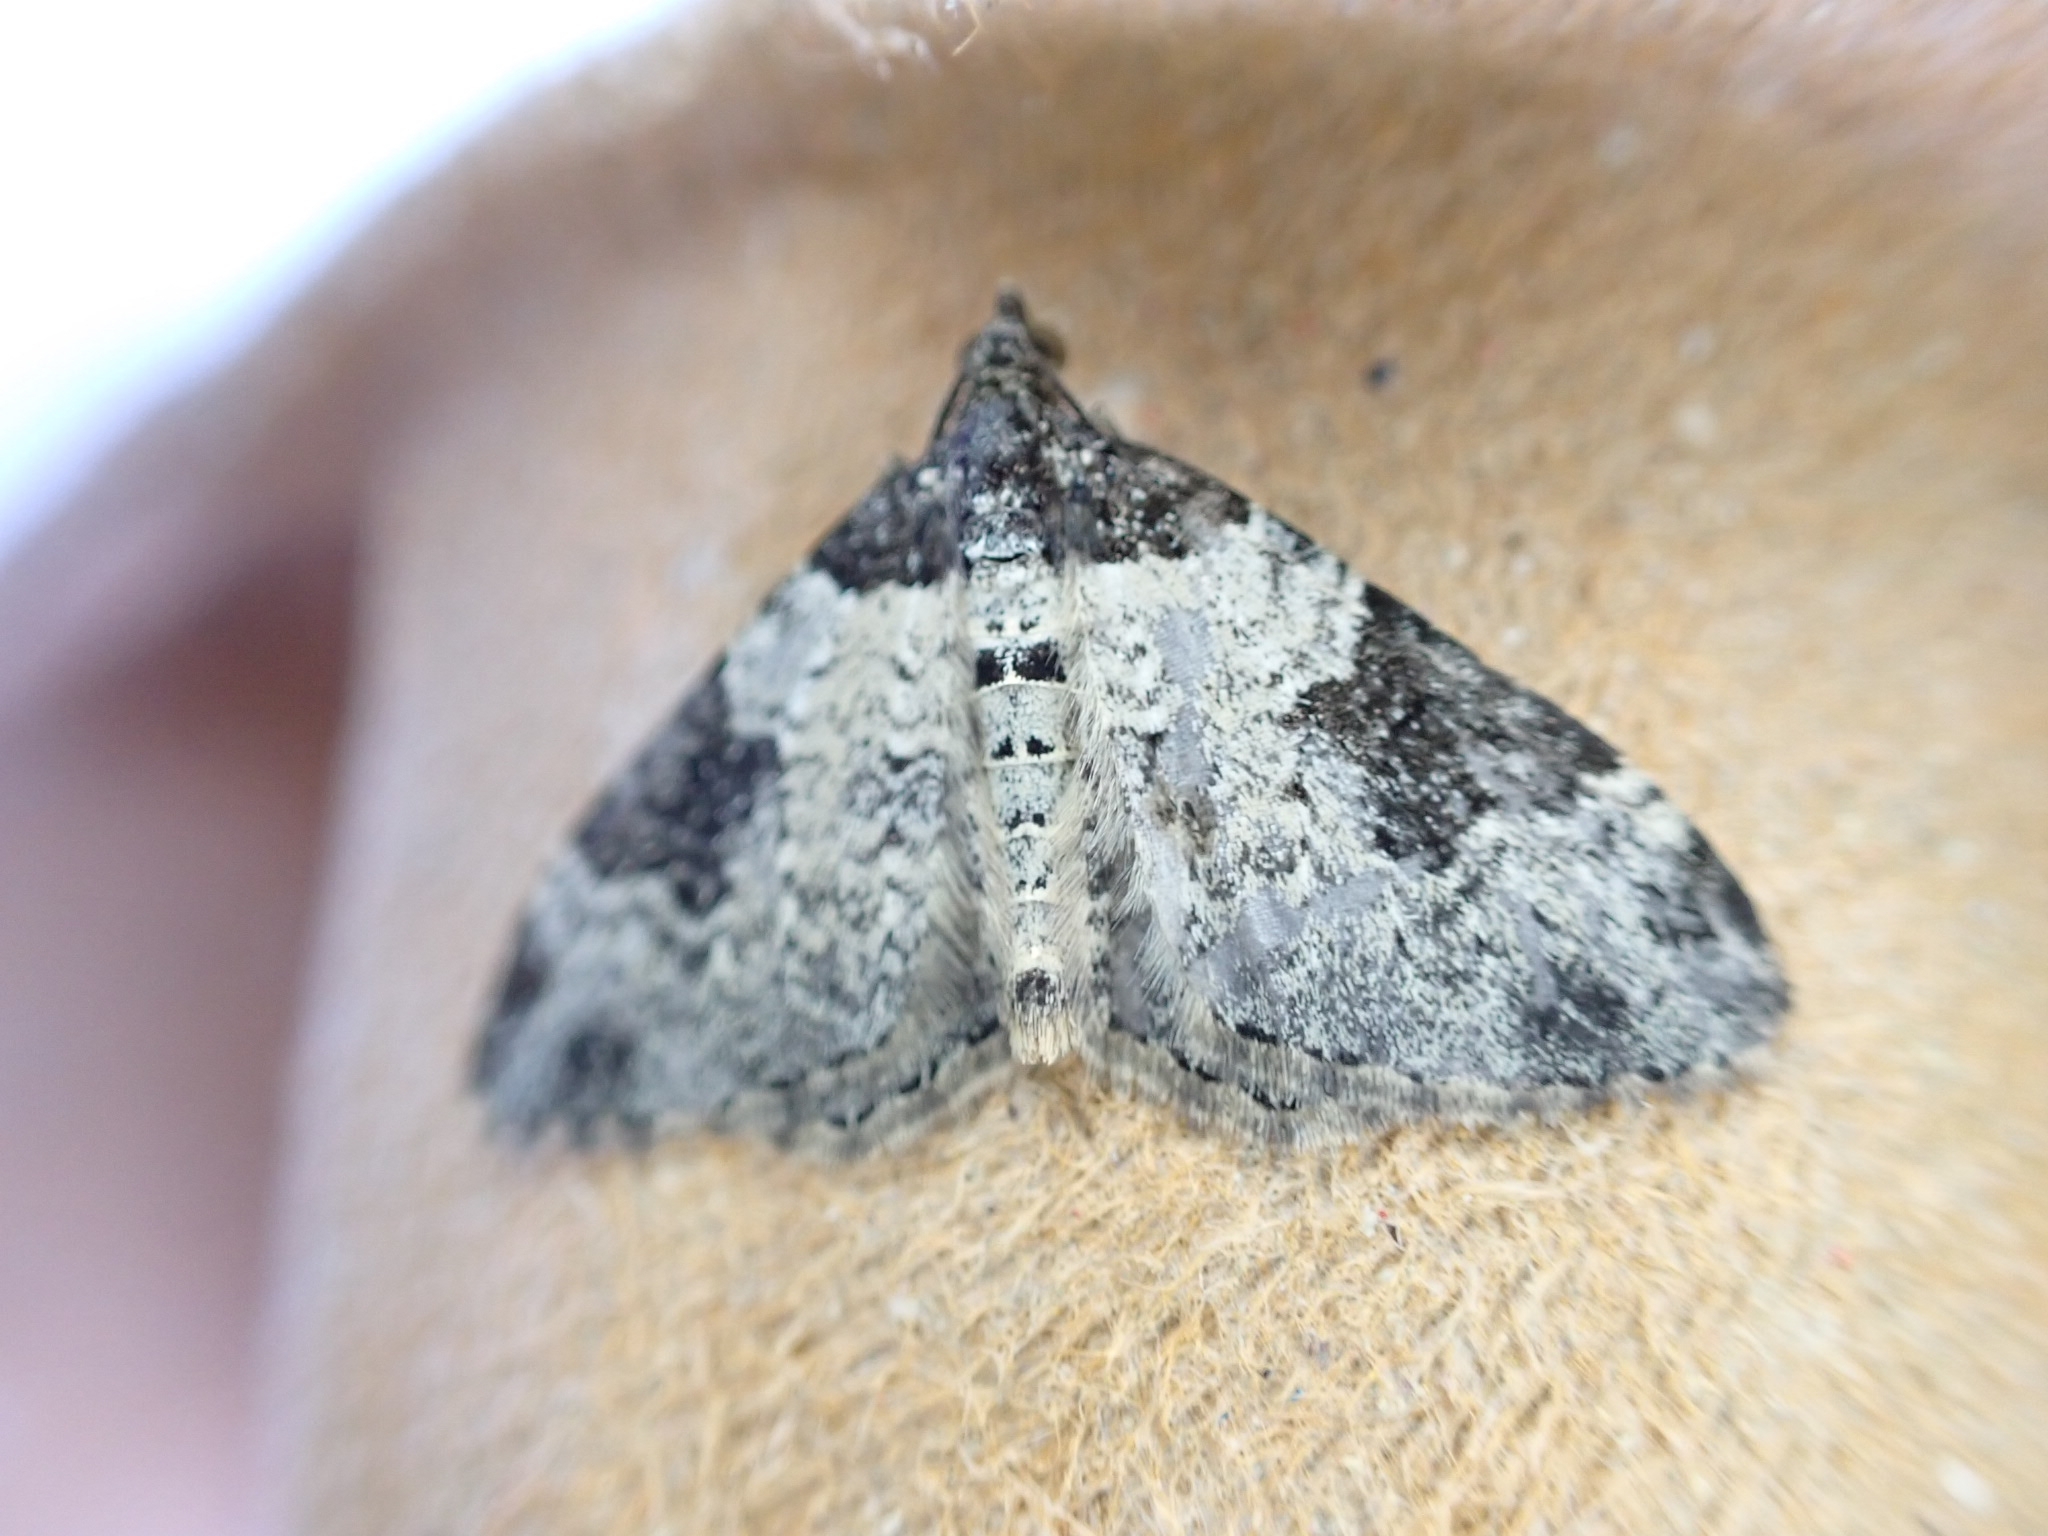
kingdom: Animalia
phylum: Arthropoda
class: Insecta
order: Lepidoptera
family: Geometridae
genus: Xanthorhoe
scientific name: Xanthorhoe fluctuata
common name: Garden carpet
